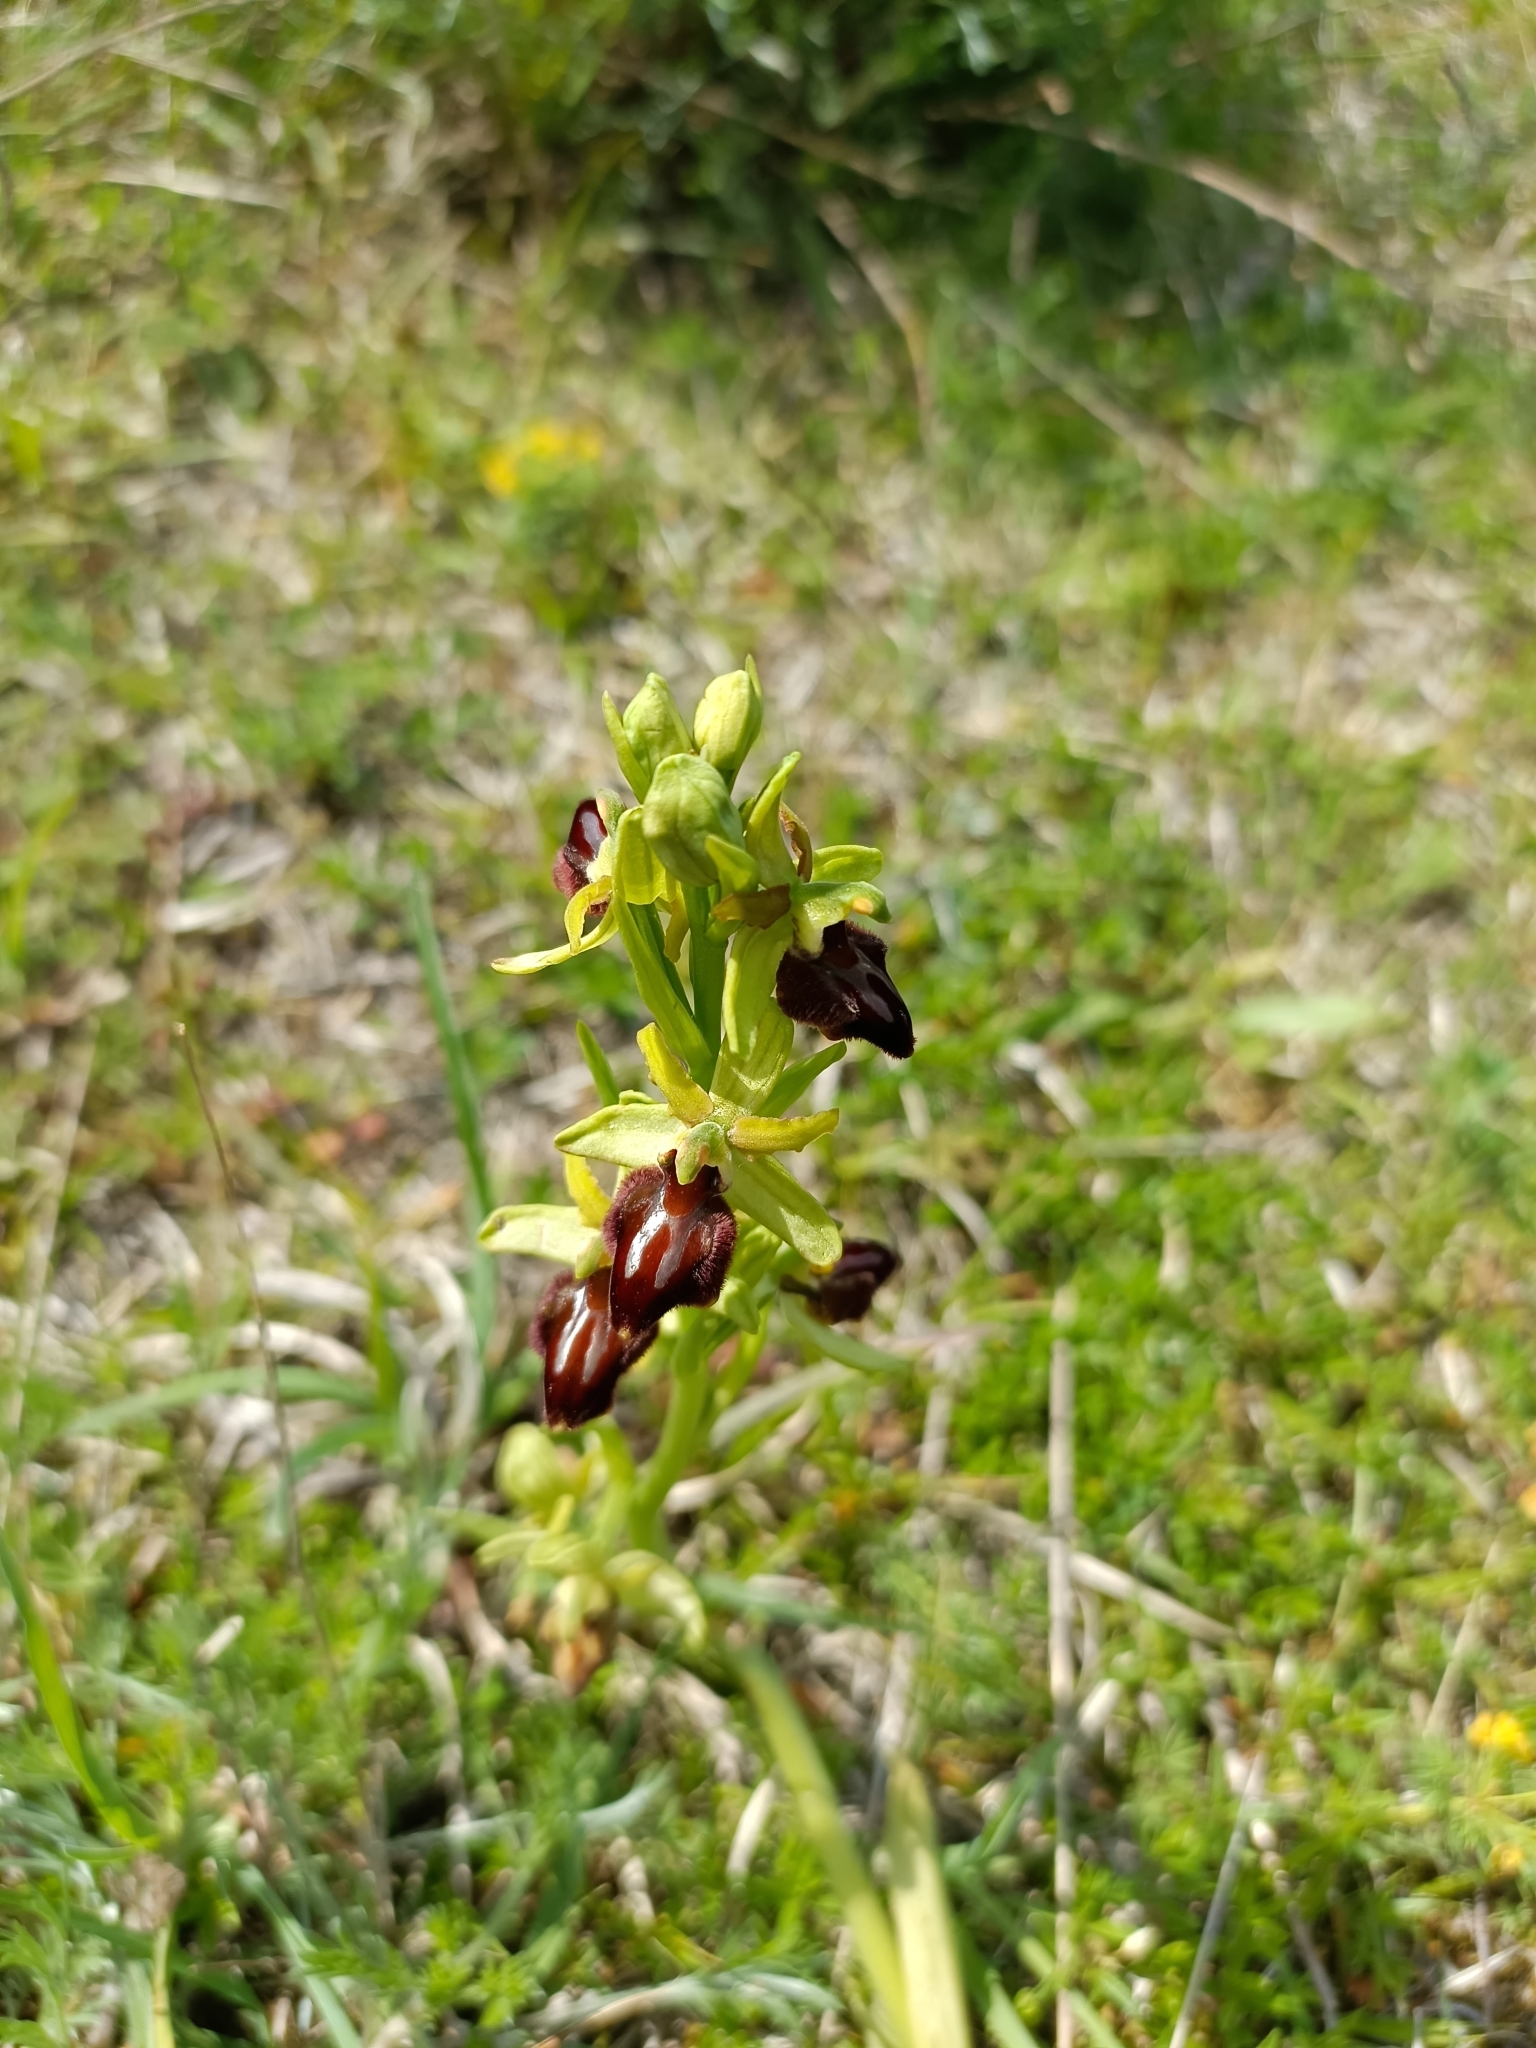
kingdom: Plantae
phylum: Tracheophyta
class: Liliopsida
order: Asparagales
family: Orchidaceae
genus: Ophrys
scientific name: Ophrys sphegodes
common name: Early spider-orchid
